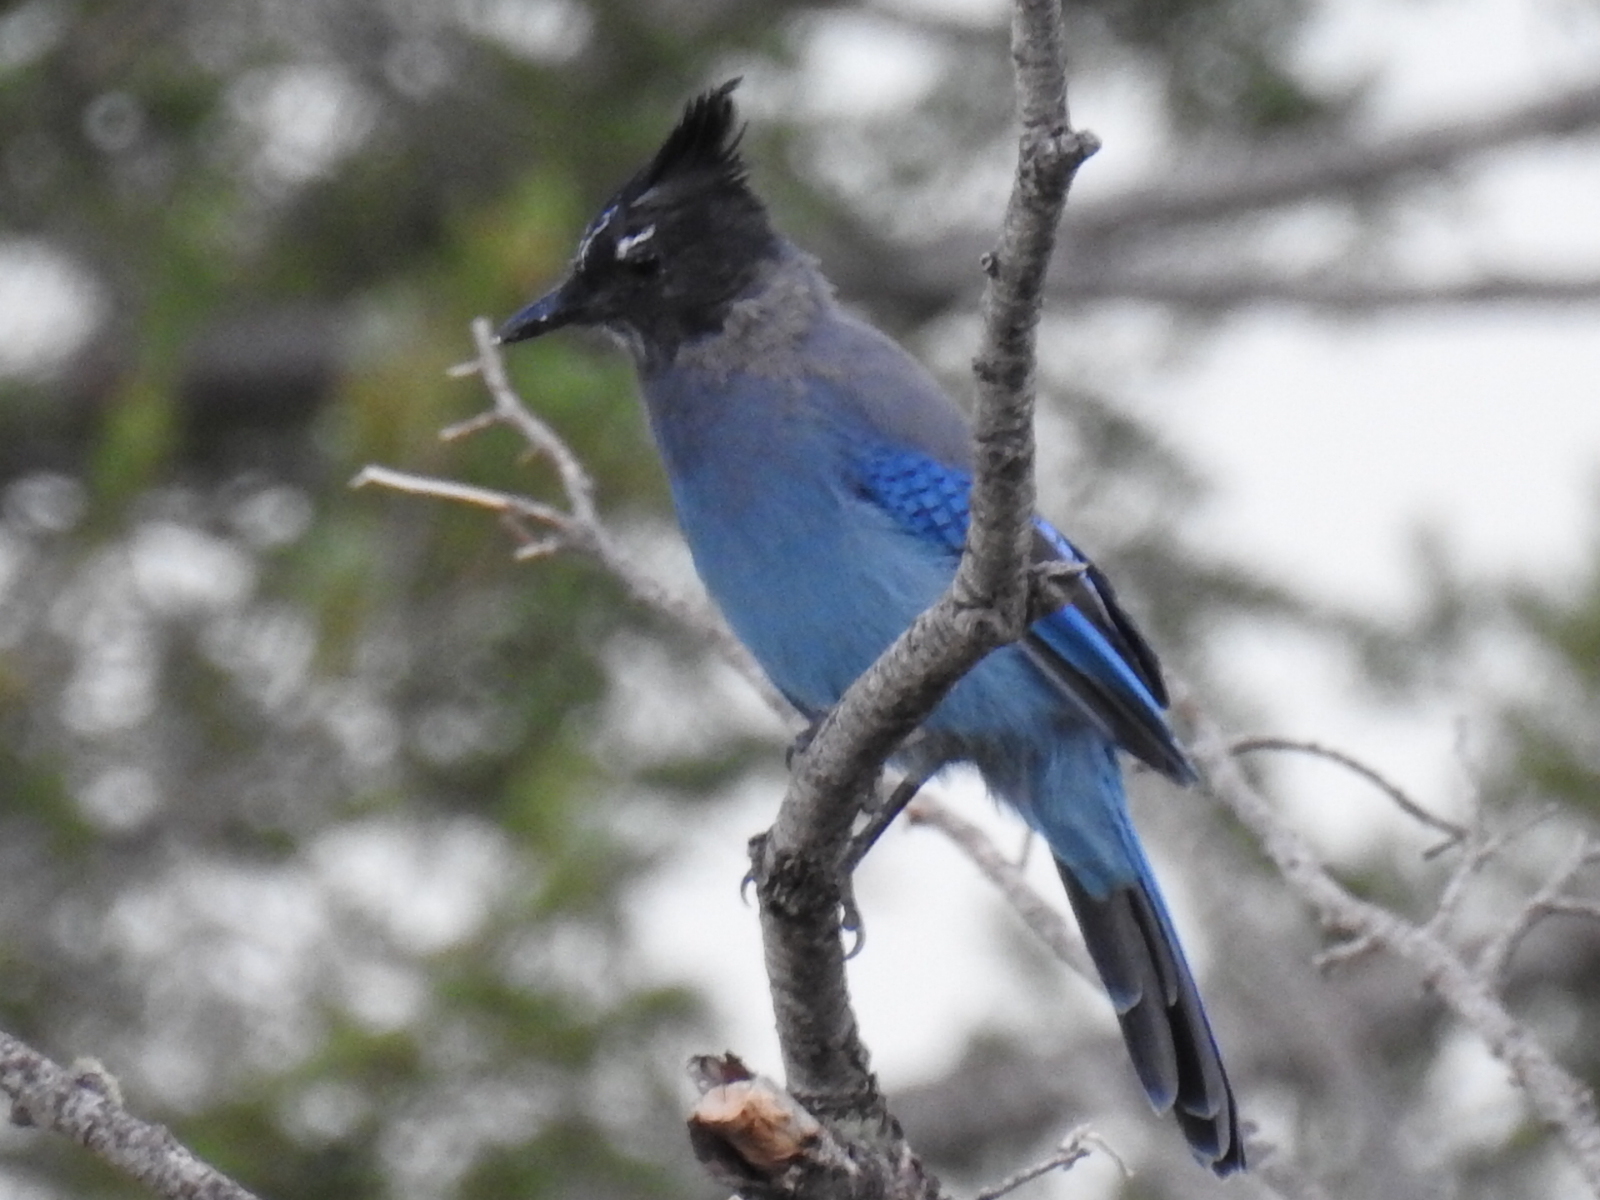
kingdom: Animalia
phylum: Chordata
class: Aves
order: Passeriformes
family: Corvidae
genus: Cyanocitta
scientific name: Cyanocitta stelleri
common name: Steller's jay
